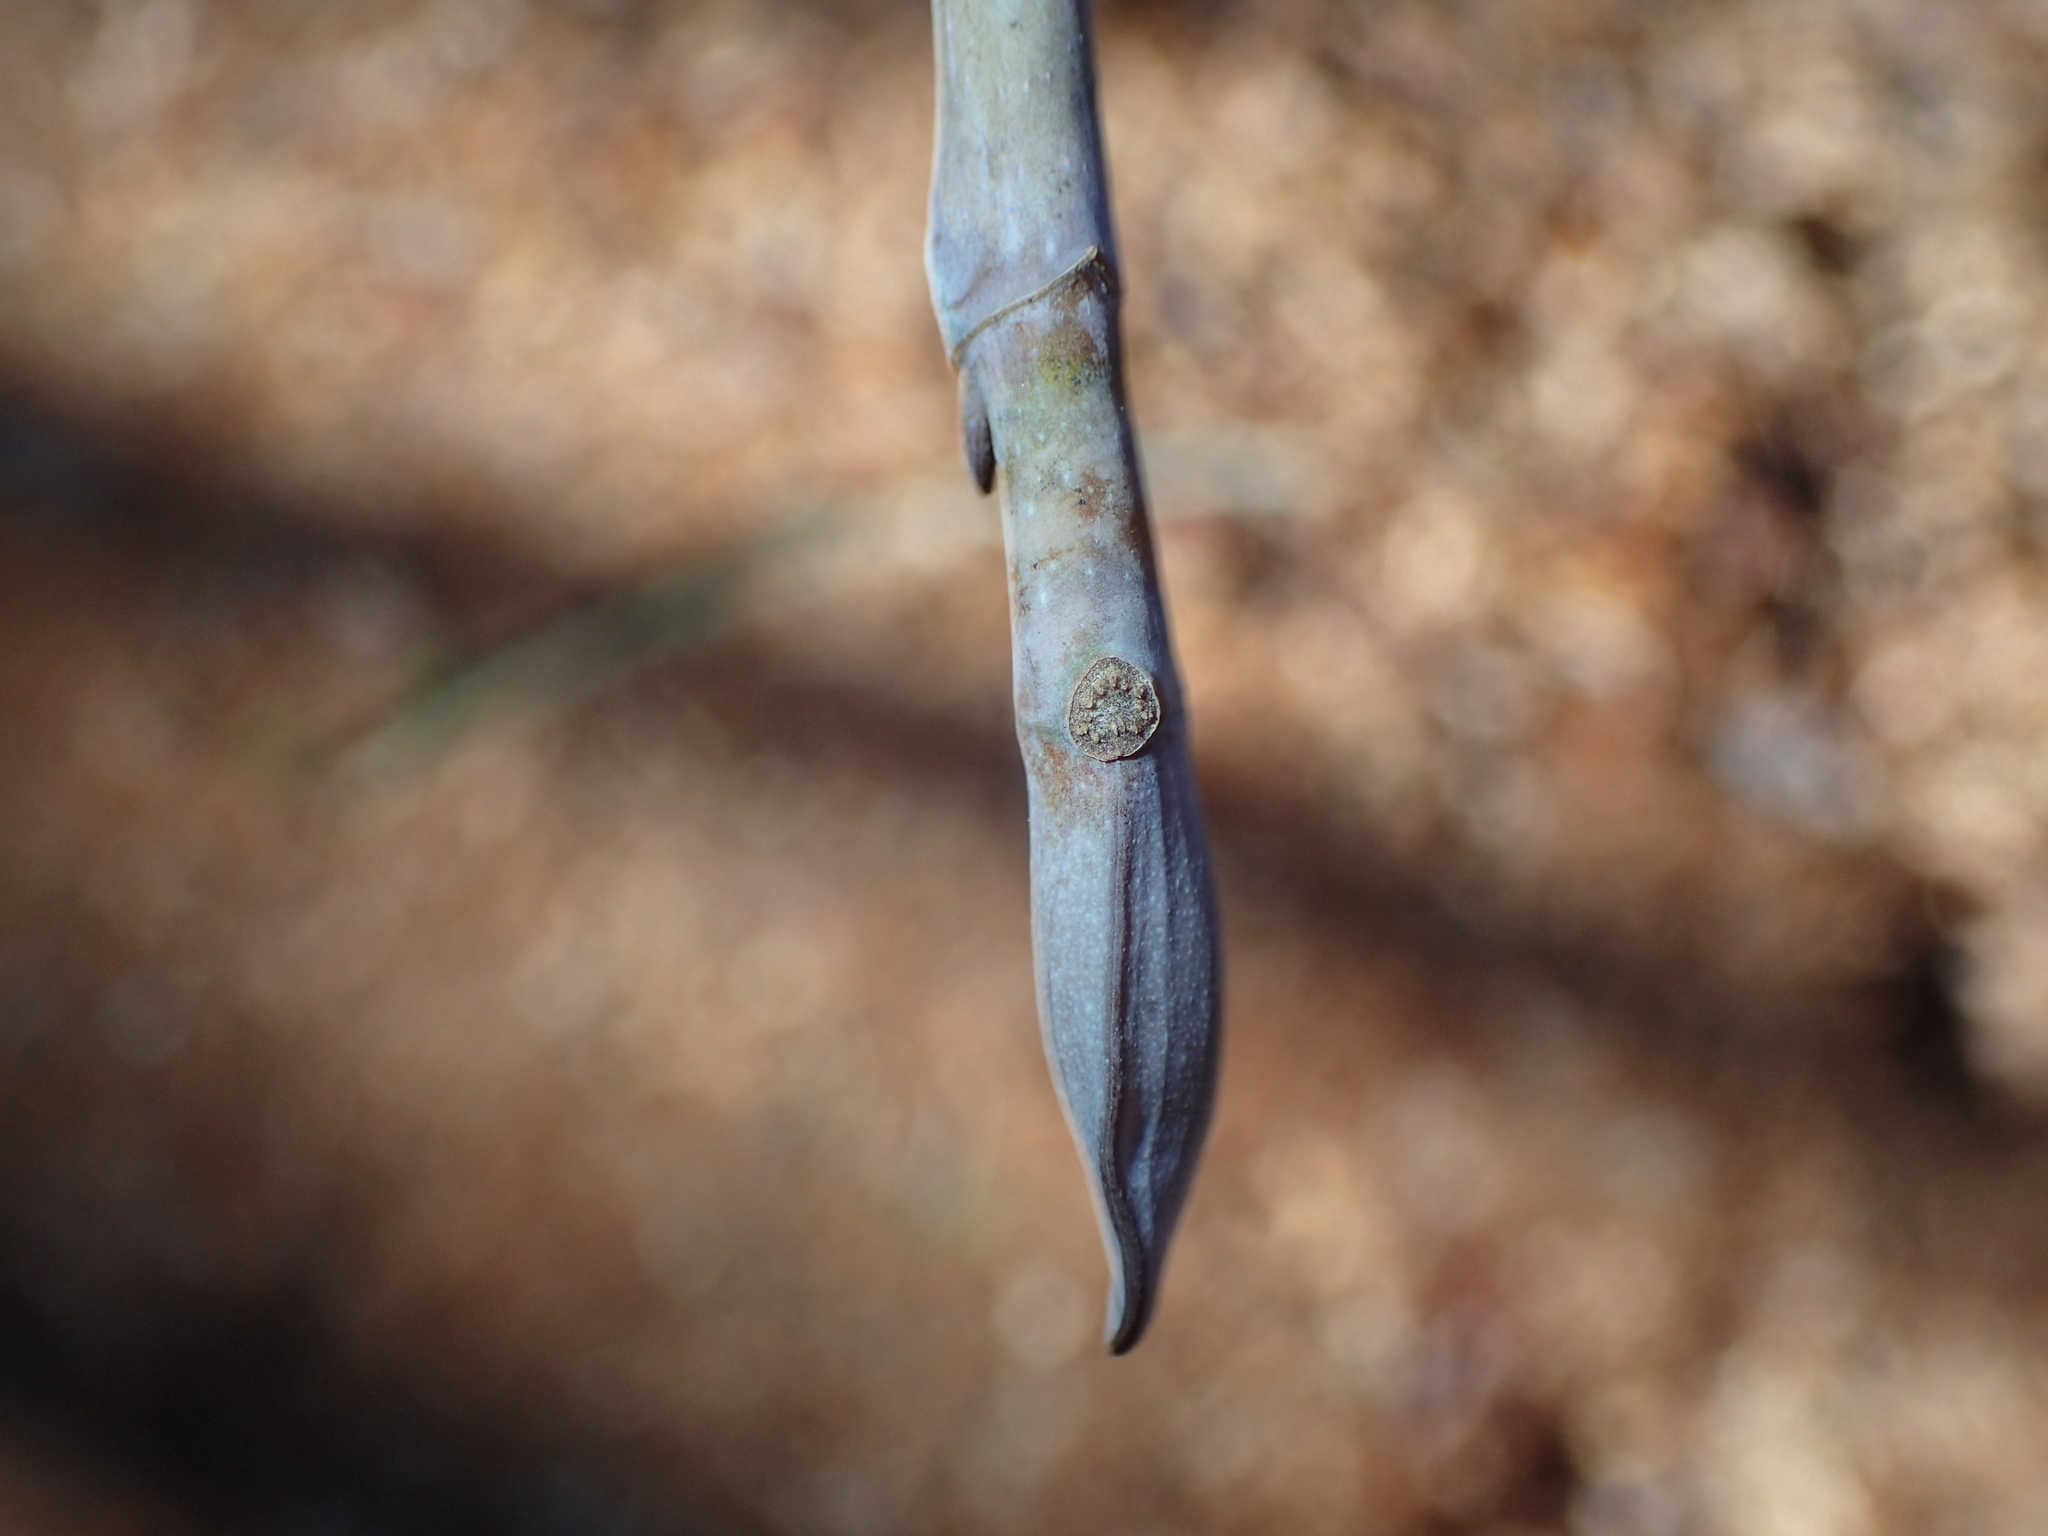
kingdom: Plantae
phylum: Tracheophyta
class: Magnoliopsida
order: Magnoliales
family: Magnoliaceae
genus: Liriodendron
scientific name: Liriodendron tulipifera
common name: Tulip tree
